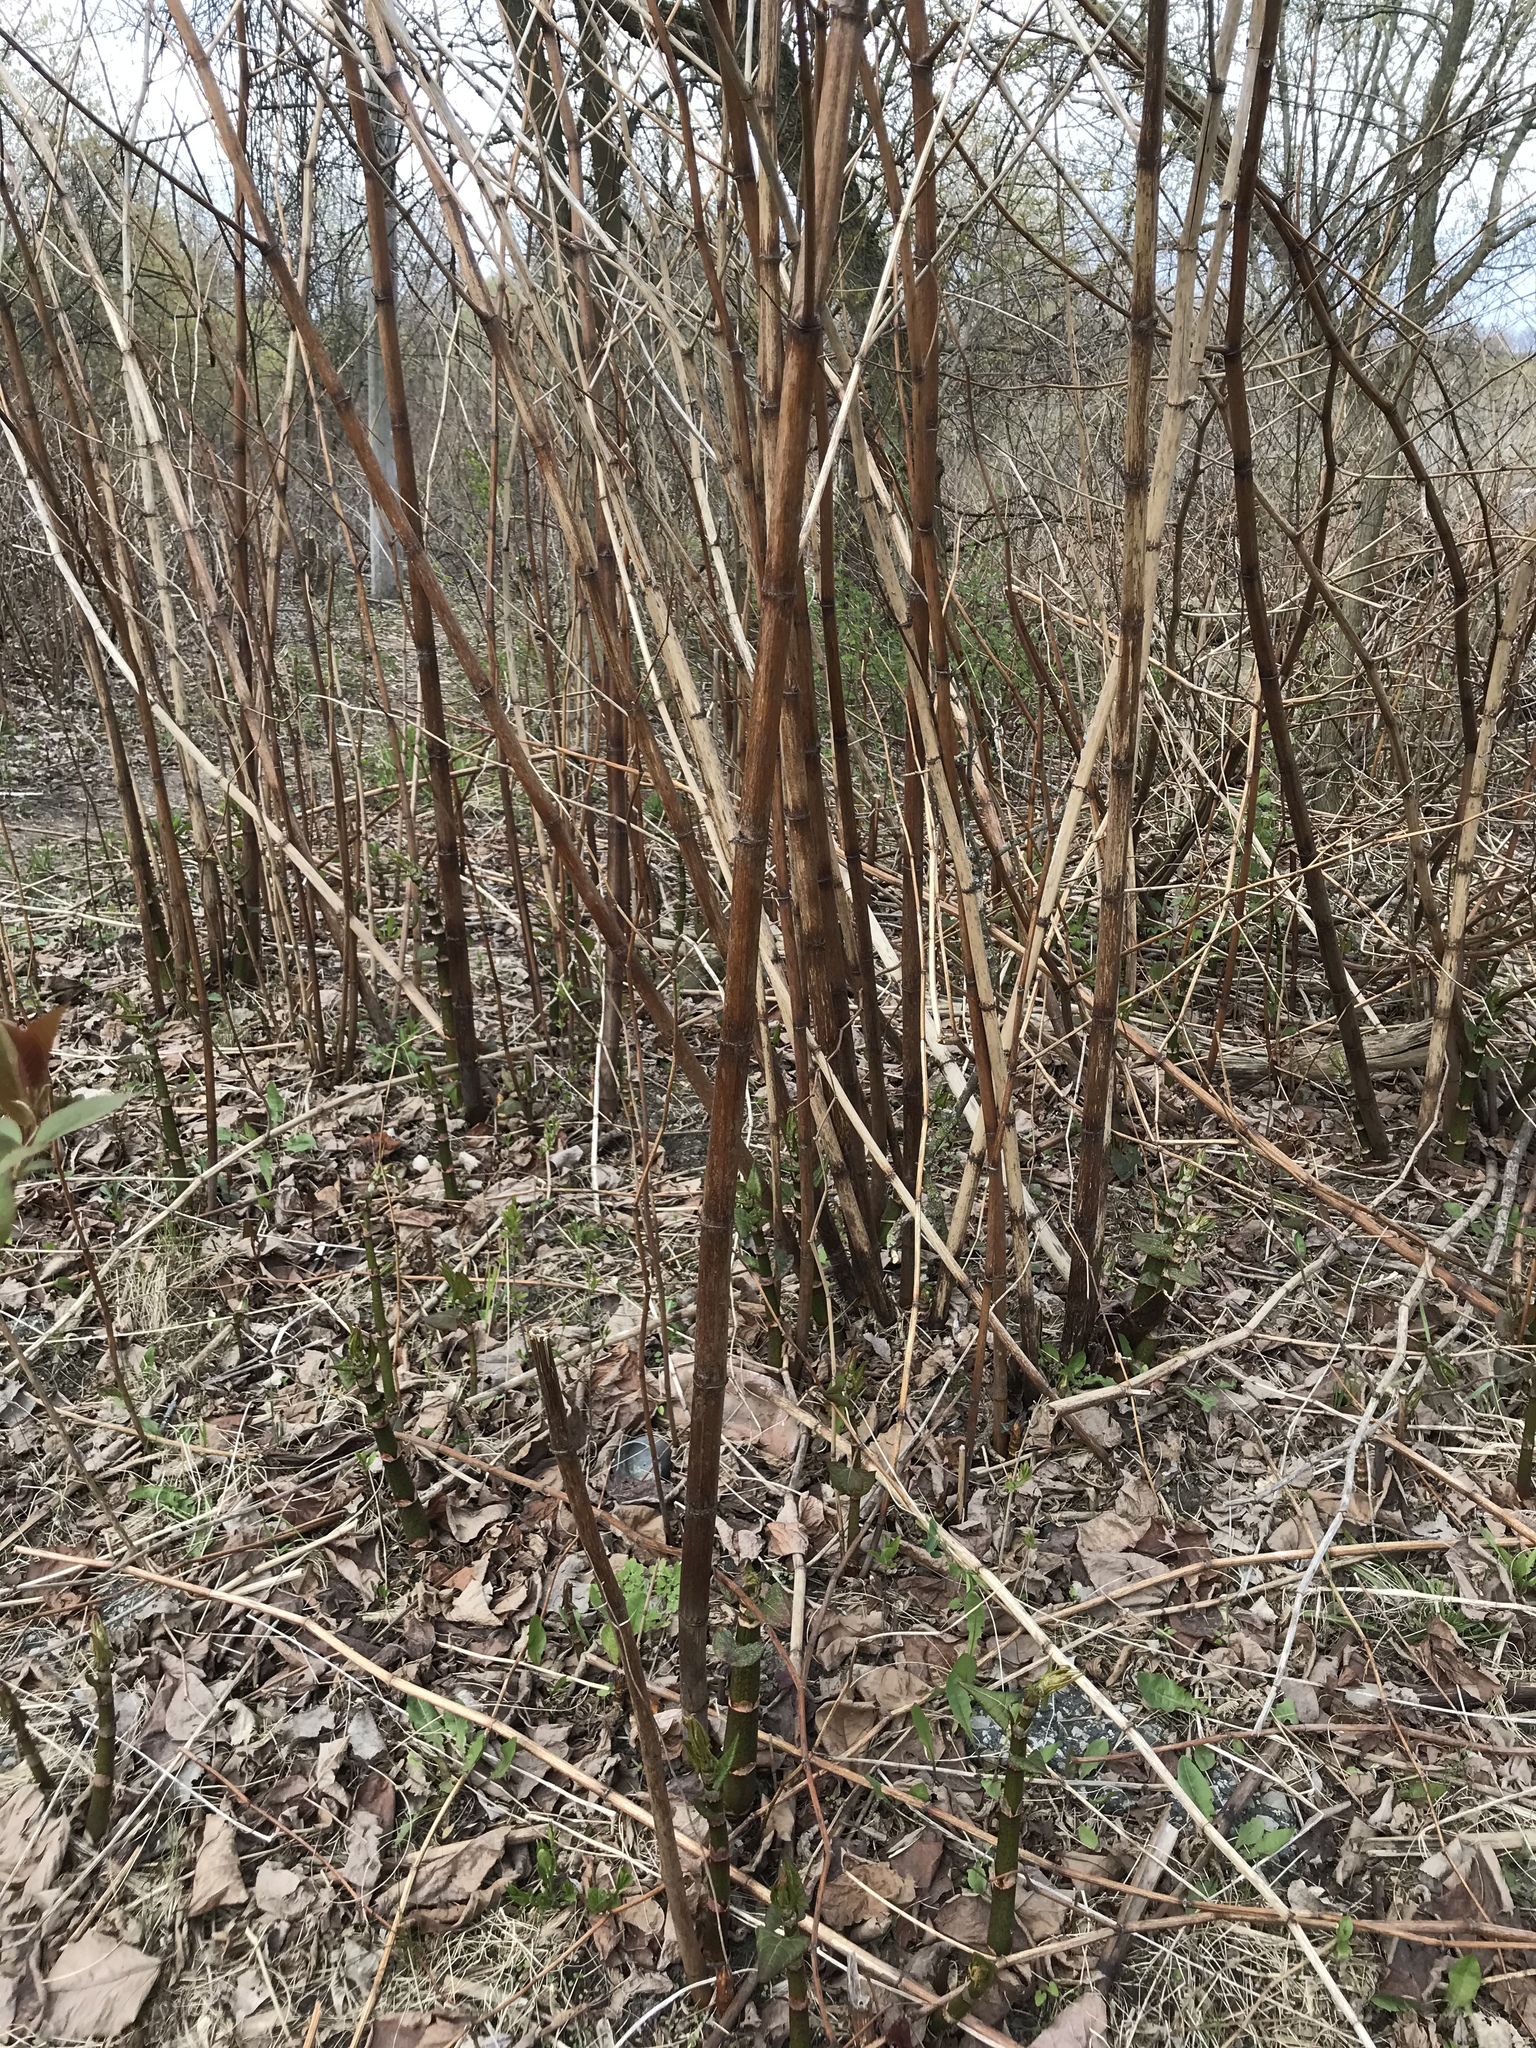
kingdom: Plantae
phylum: Tracheophyta
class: Magnoliopsida
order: Caryophyllales
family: Polygonaceae
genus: Reynoutria
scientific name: Reynoutria japonica
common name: Japanese knotweed
